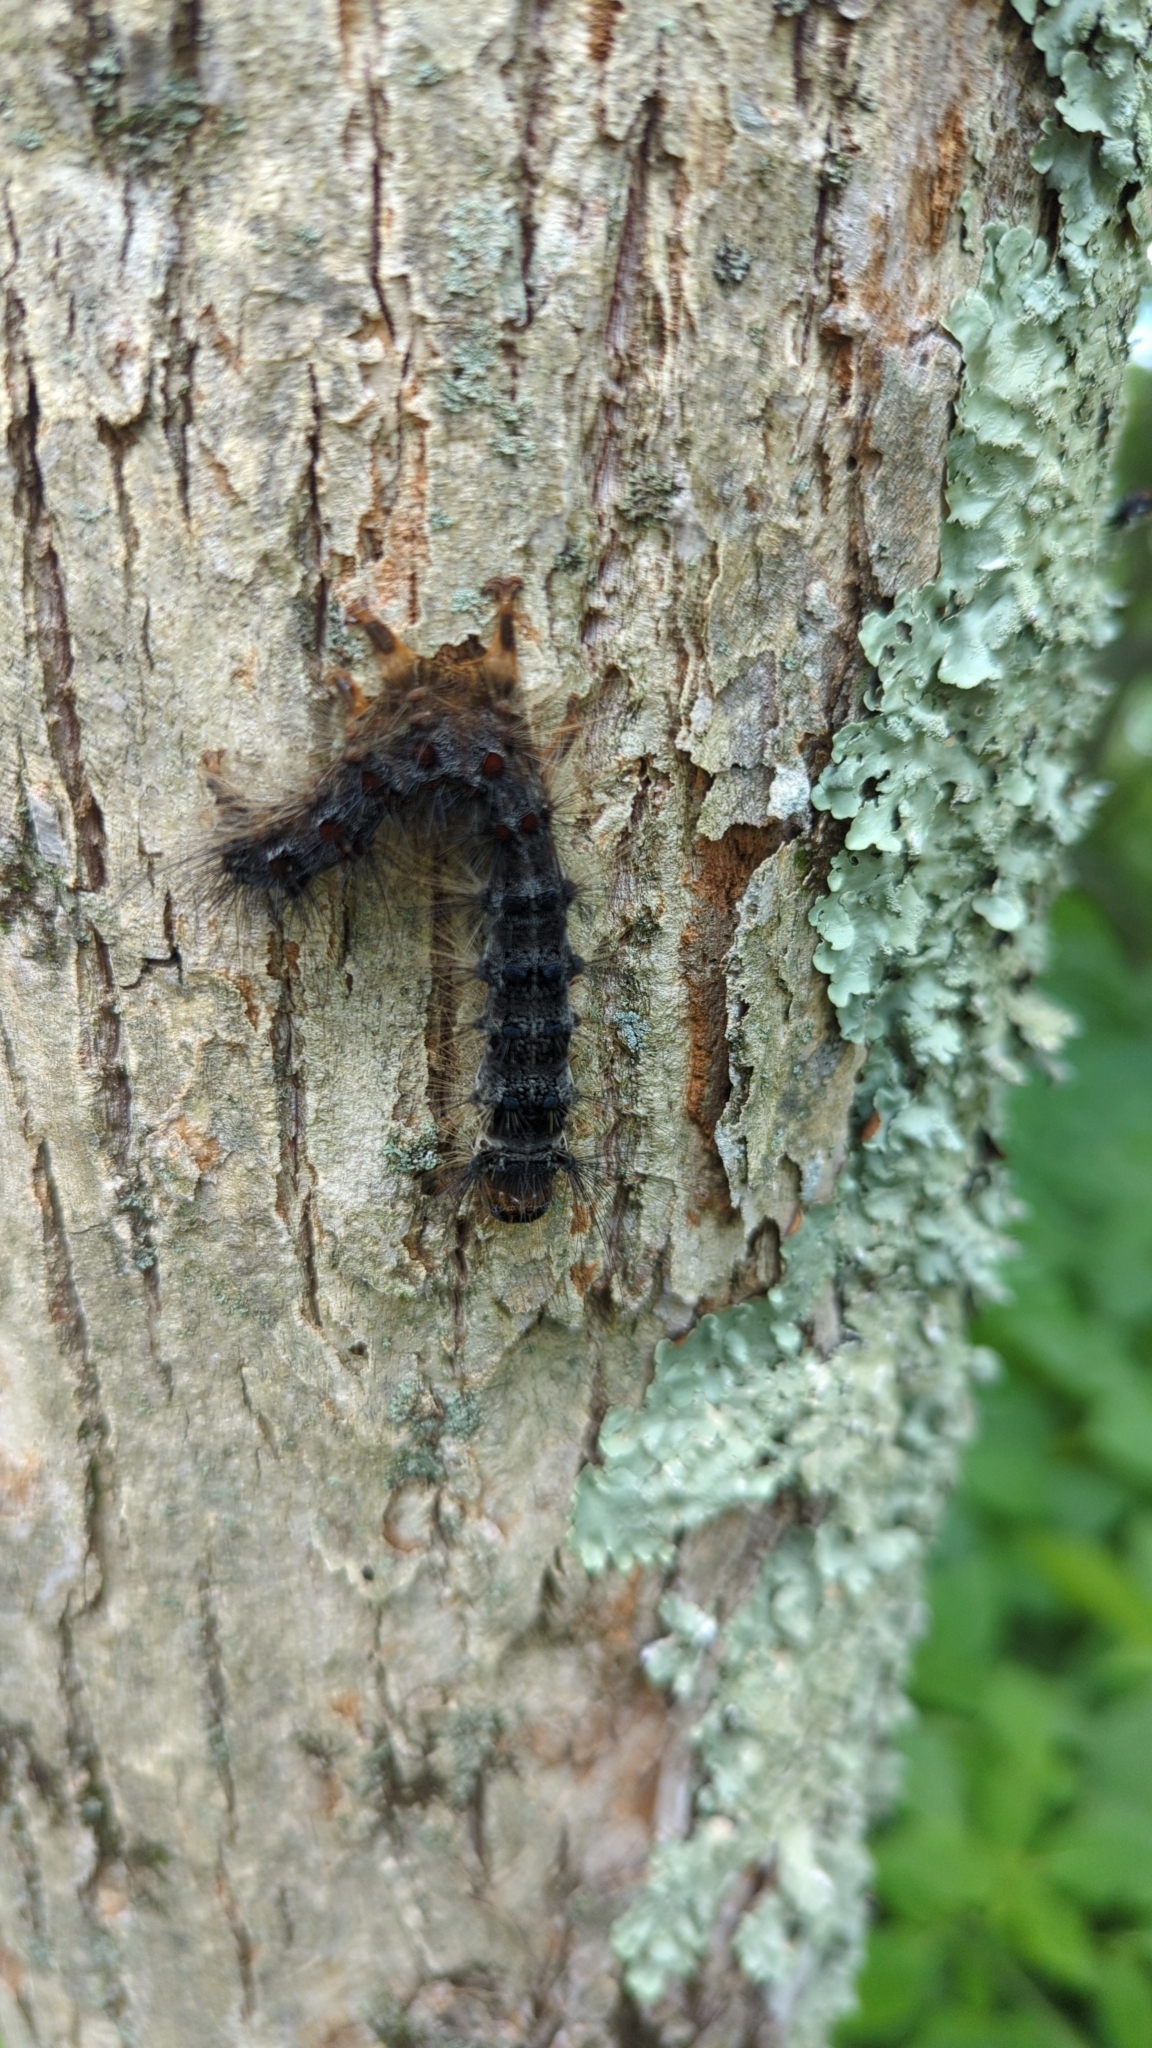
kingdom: Animalia
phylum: Arthropoda
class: Insecta
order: Lepidoptera
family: Erebidae
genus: Lymantria
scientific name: Lymantria dispar
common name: Gypsy moth
